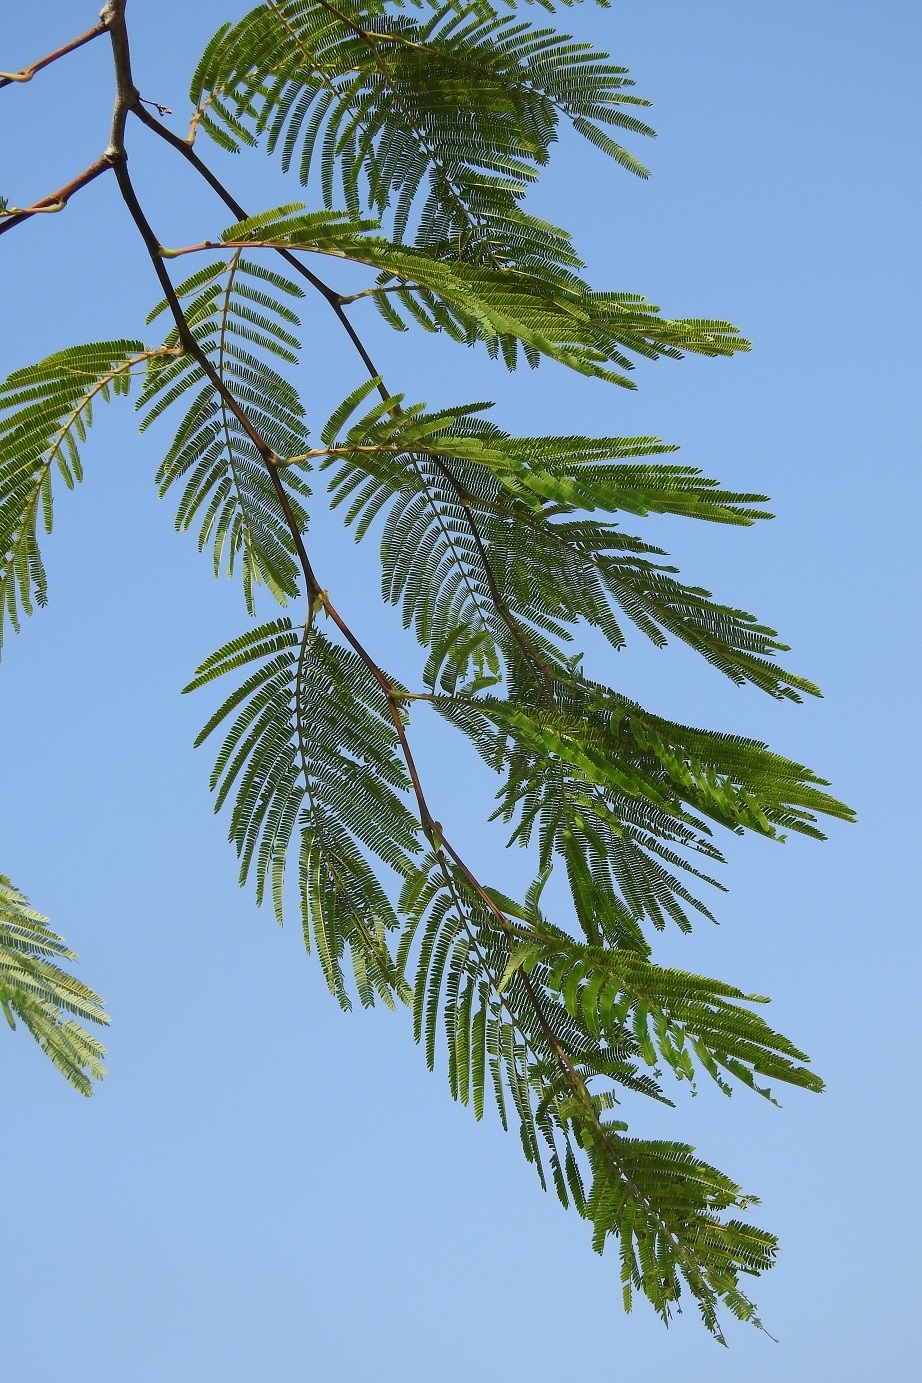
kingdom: Plantae
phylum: Tracheophyta
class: Magnoliopsida
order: Fabales
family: Fabaceae
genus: Mariosousa
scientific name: Mariosousa coulteri
